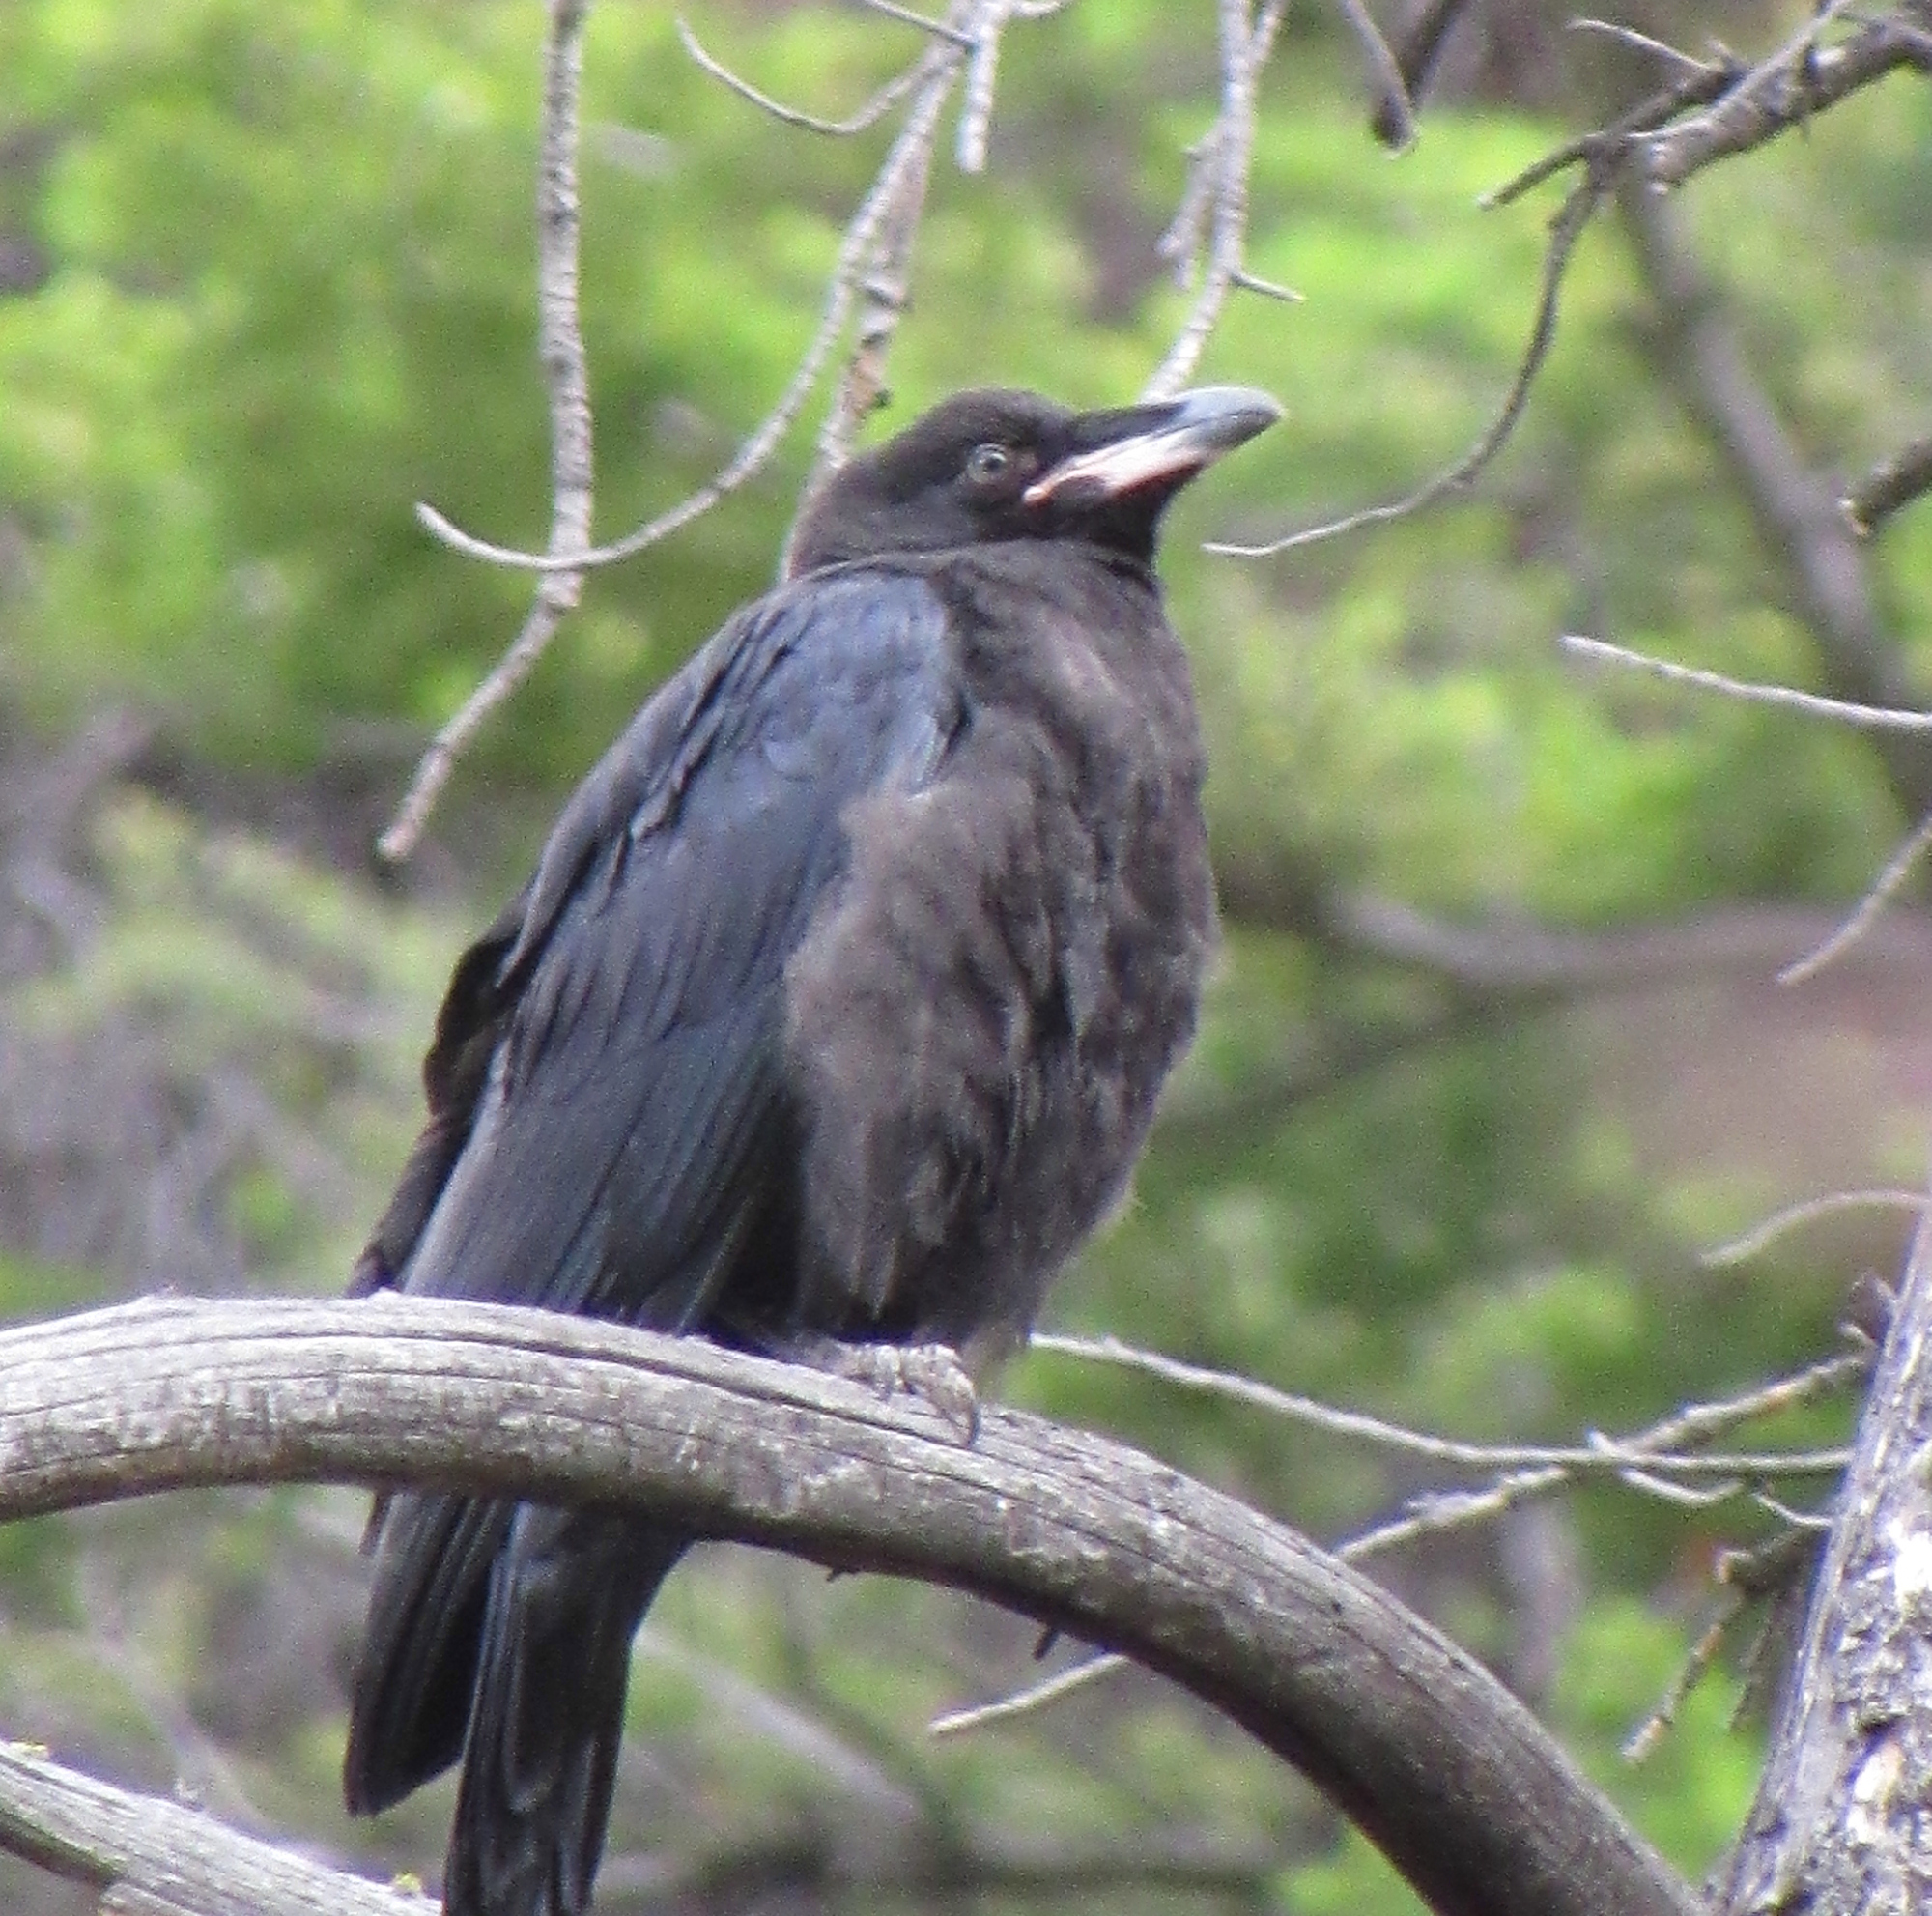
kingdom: Animalia
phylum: Chordata
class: Aves
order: Passeriformes
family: Corvidae
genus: Corvus
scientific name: Corvus corax
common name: Common raven
